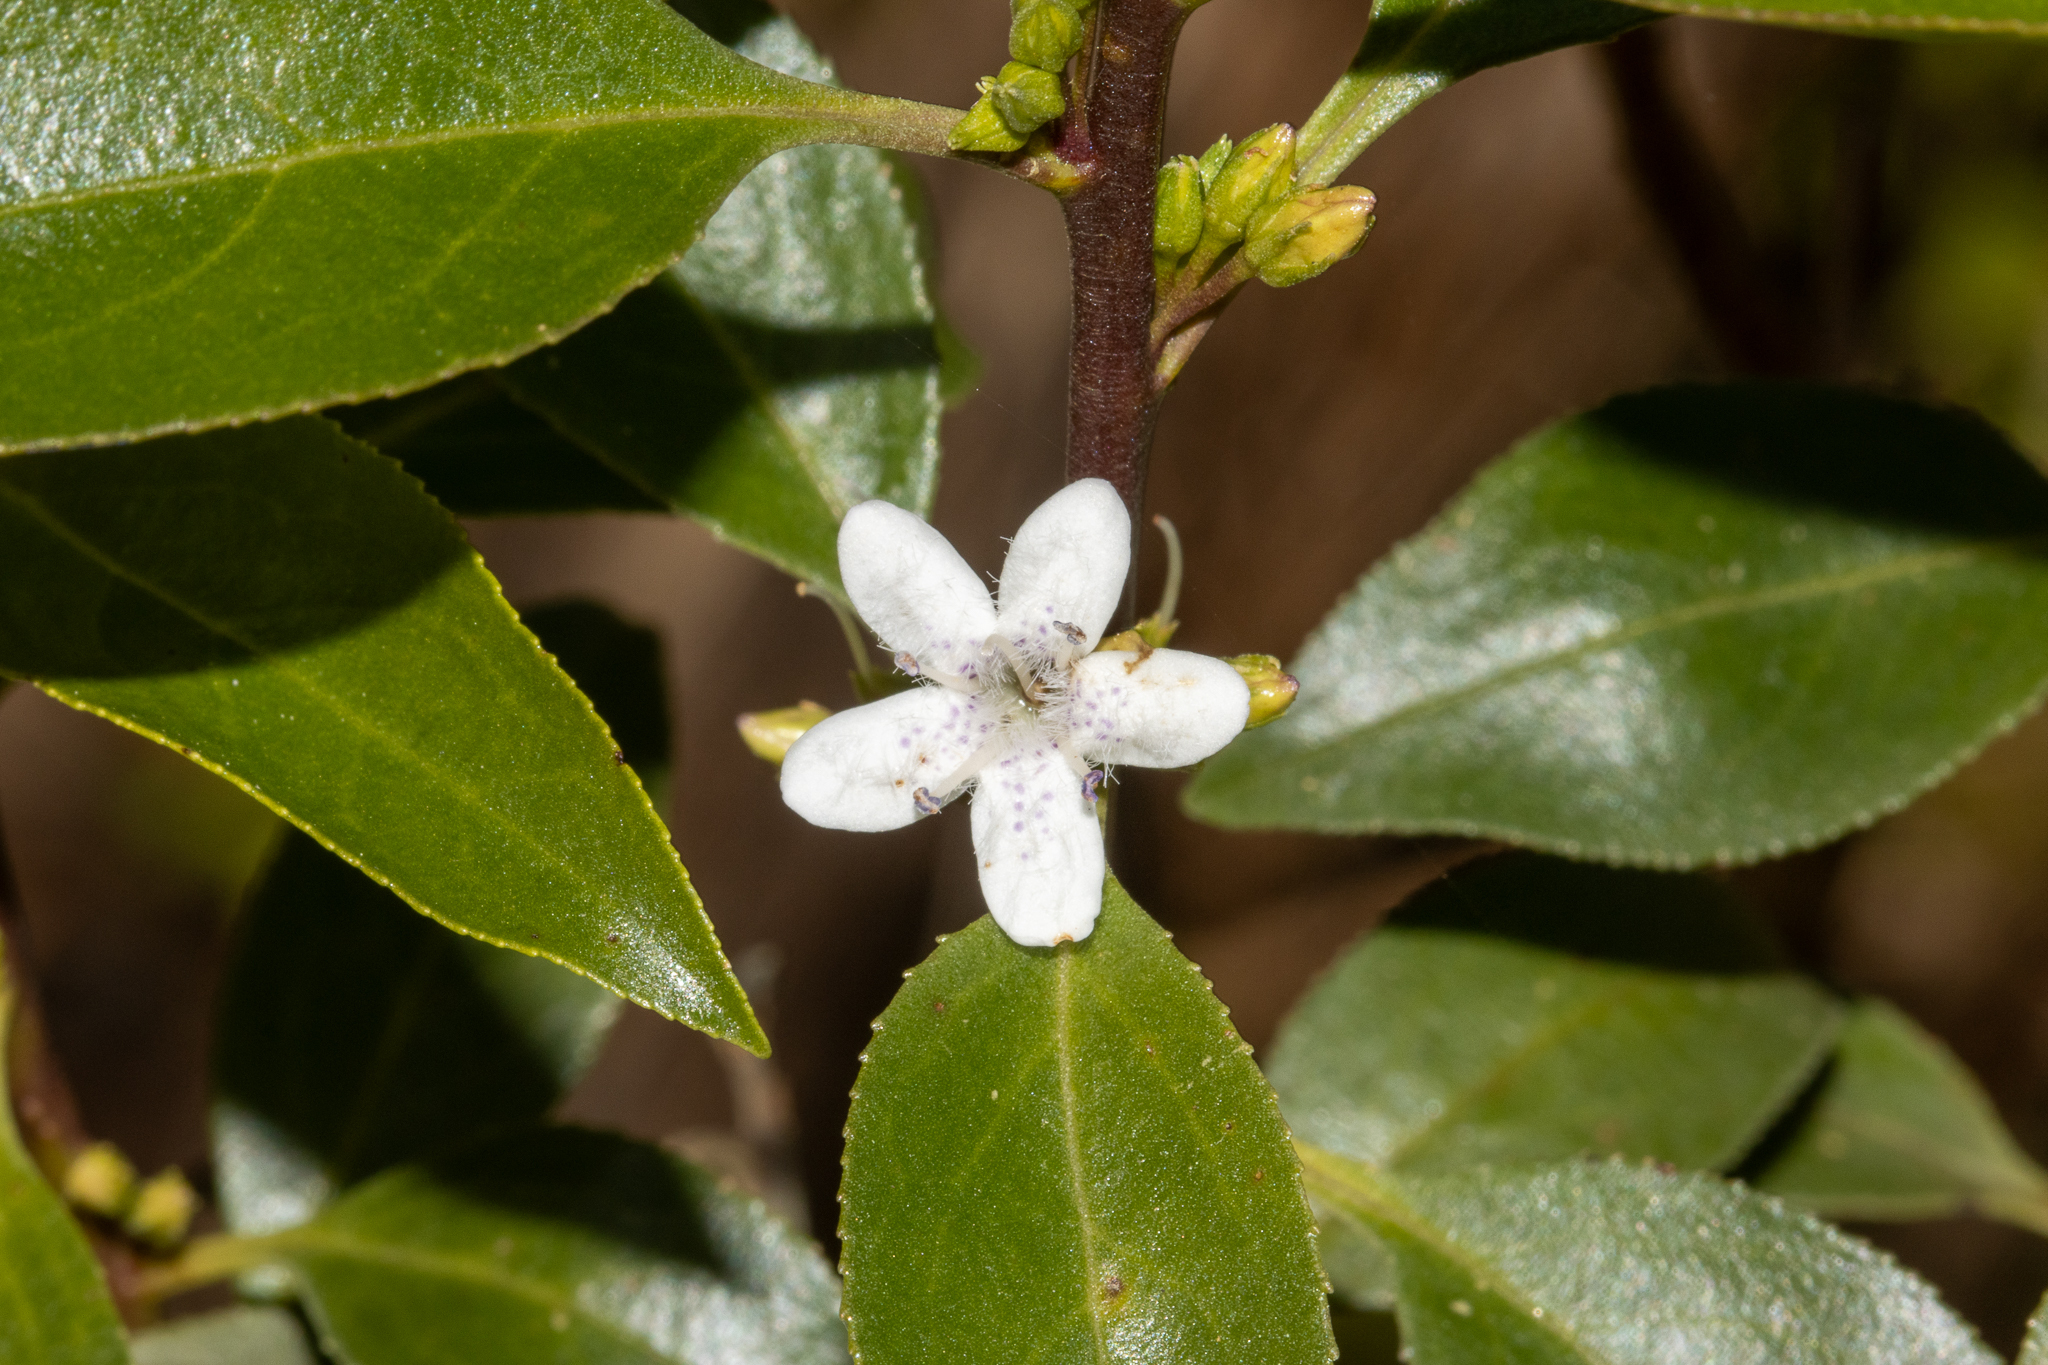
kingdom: Plantae
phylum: Tracheophyta
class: Magnoliopsida
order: Lamiales
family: Scrophulariaceae
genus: Myoporum
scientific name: Myoporum petiolatum
